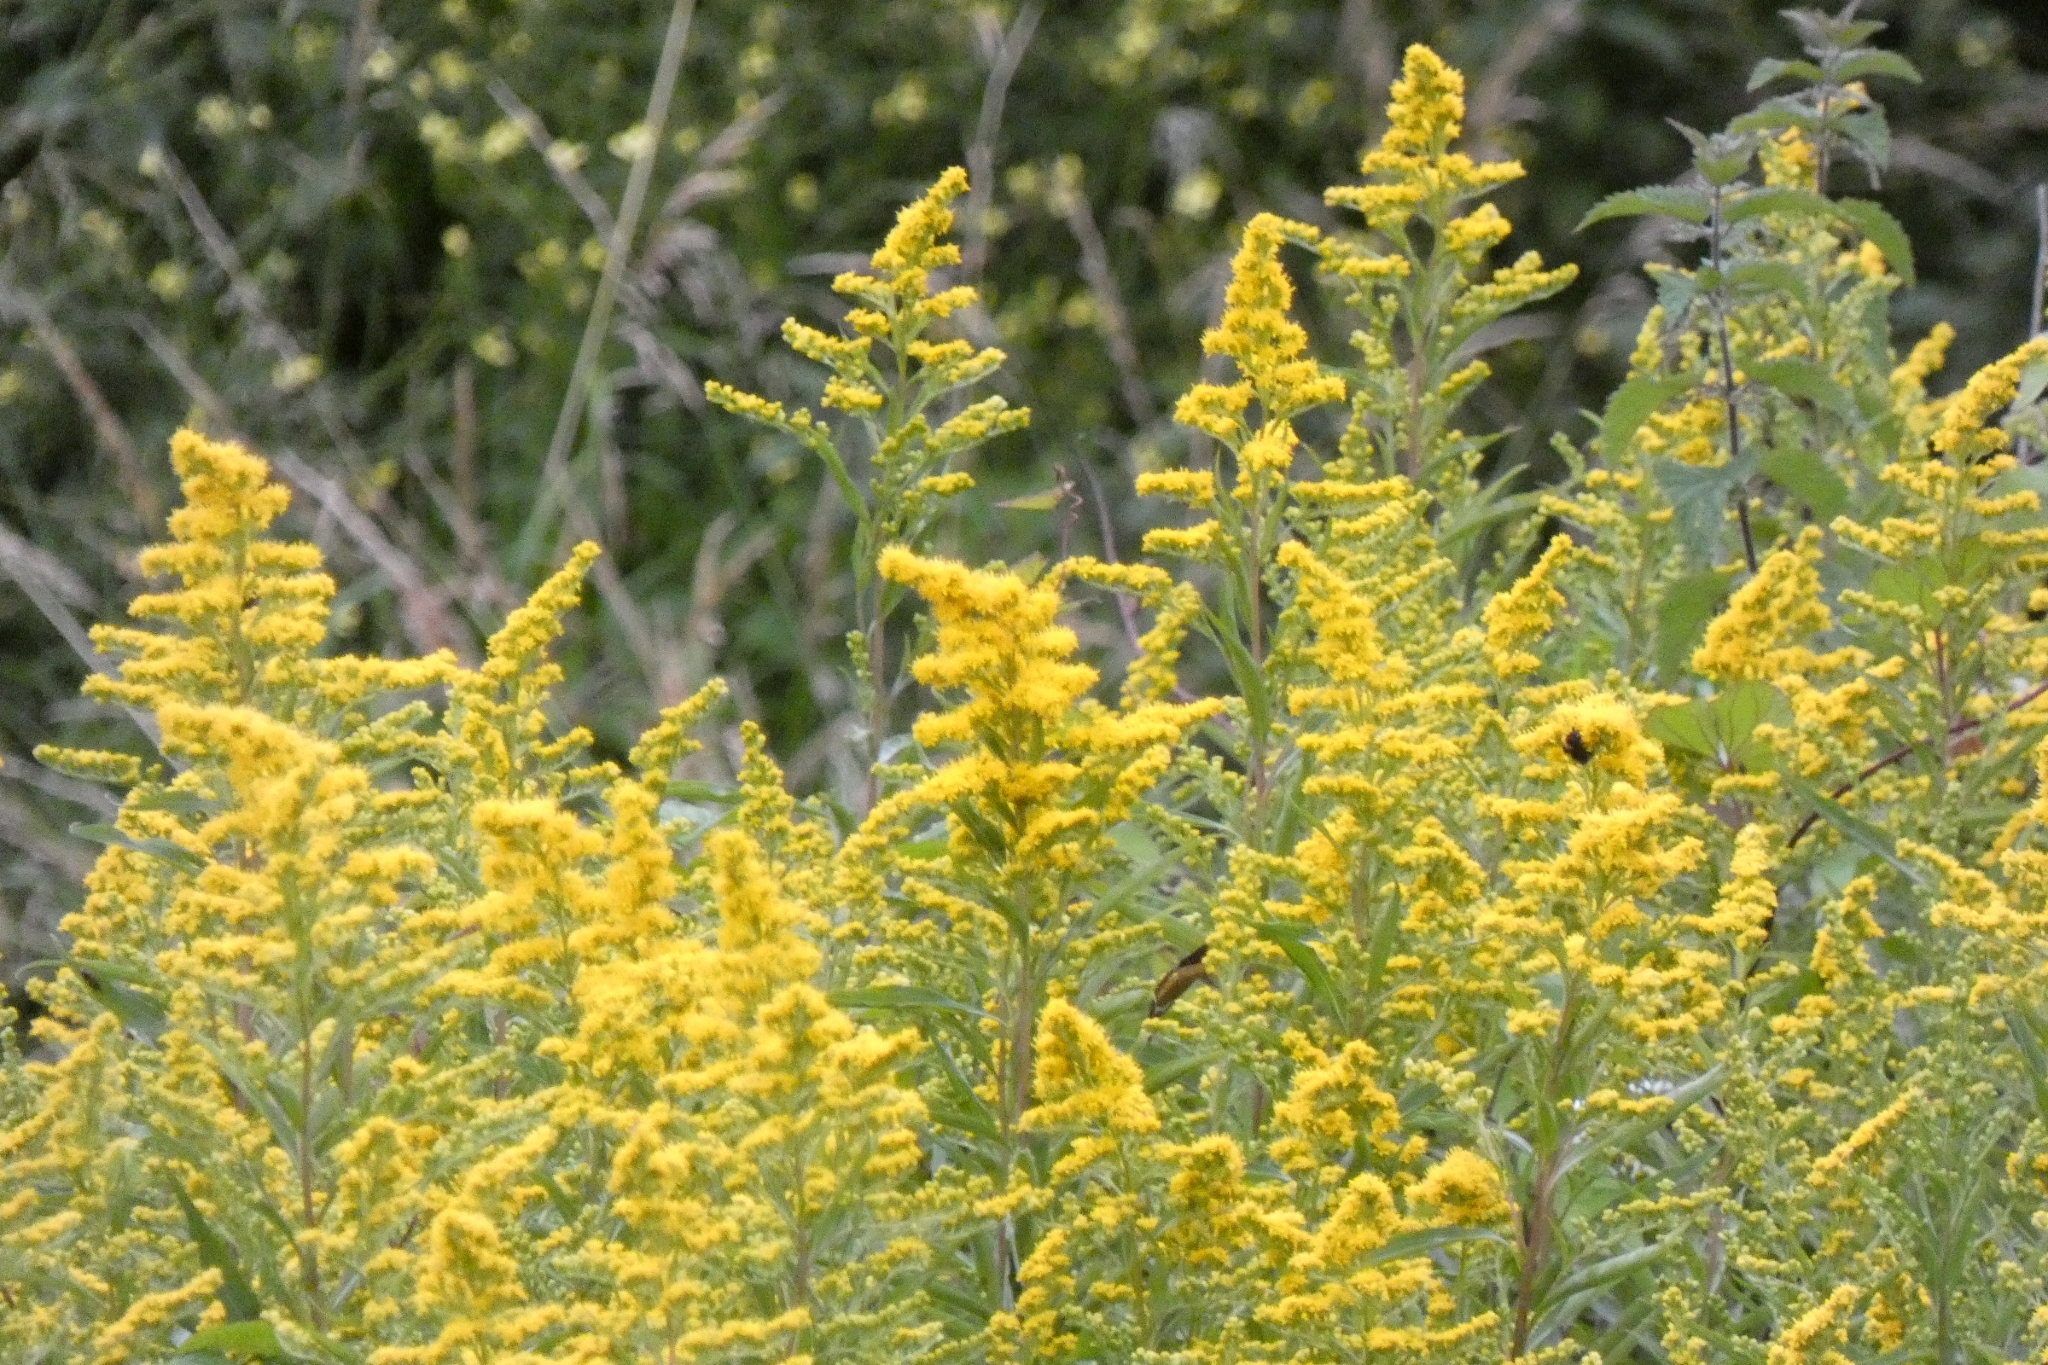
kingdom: Plantae
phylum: Tracheophyta
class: Magnoliopsida
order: Asterales
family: Asteraceae
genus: Solidago
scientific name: Solidago canadensis
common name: Canada goldenrod
